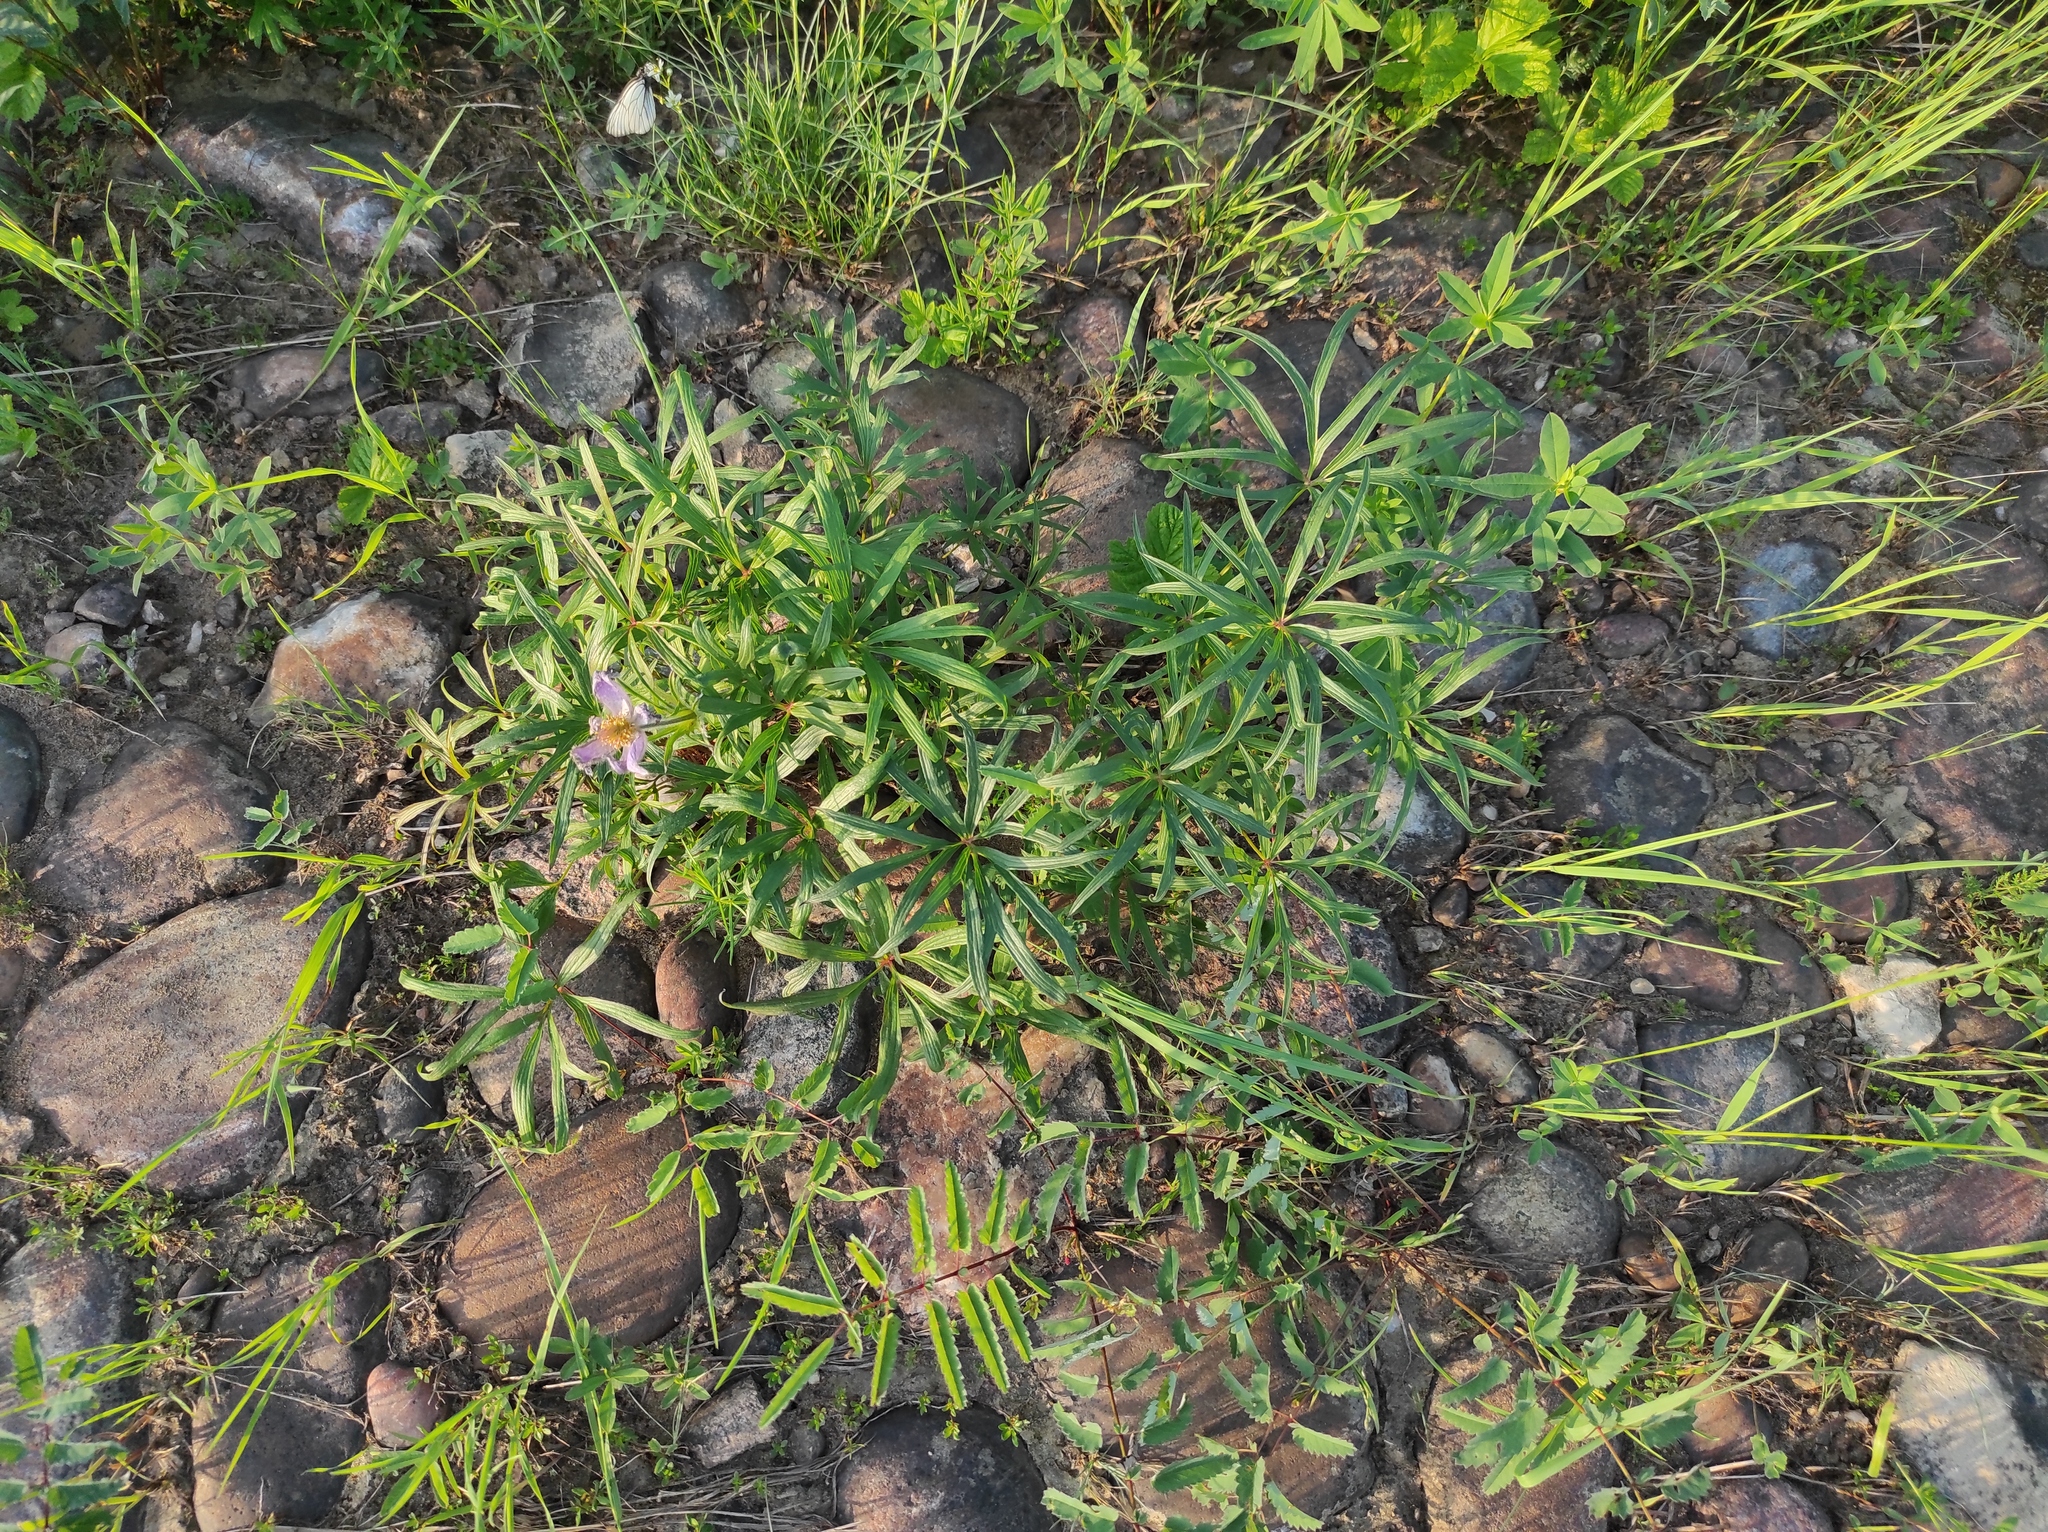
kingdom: Plantae
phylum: Tracheophyta
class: Magnoliopsida
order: Ranunculales
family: Ranunculaceae
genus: Pulsatilla
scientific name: Pulsatilla patens
